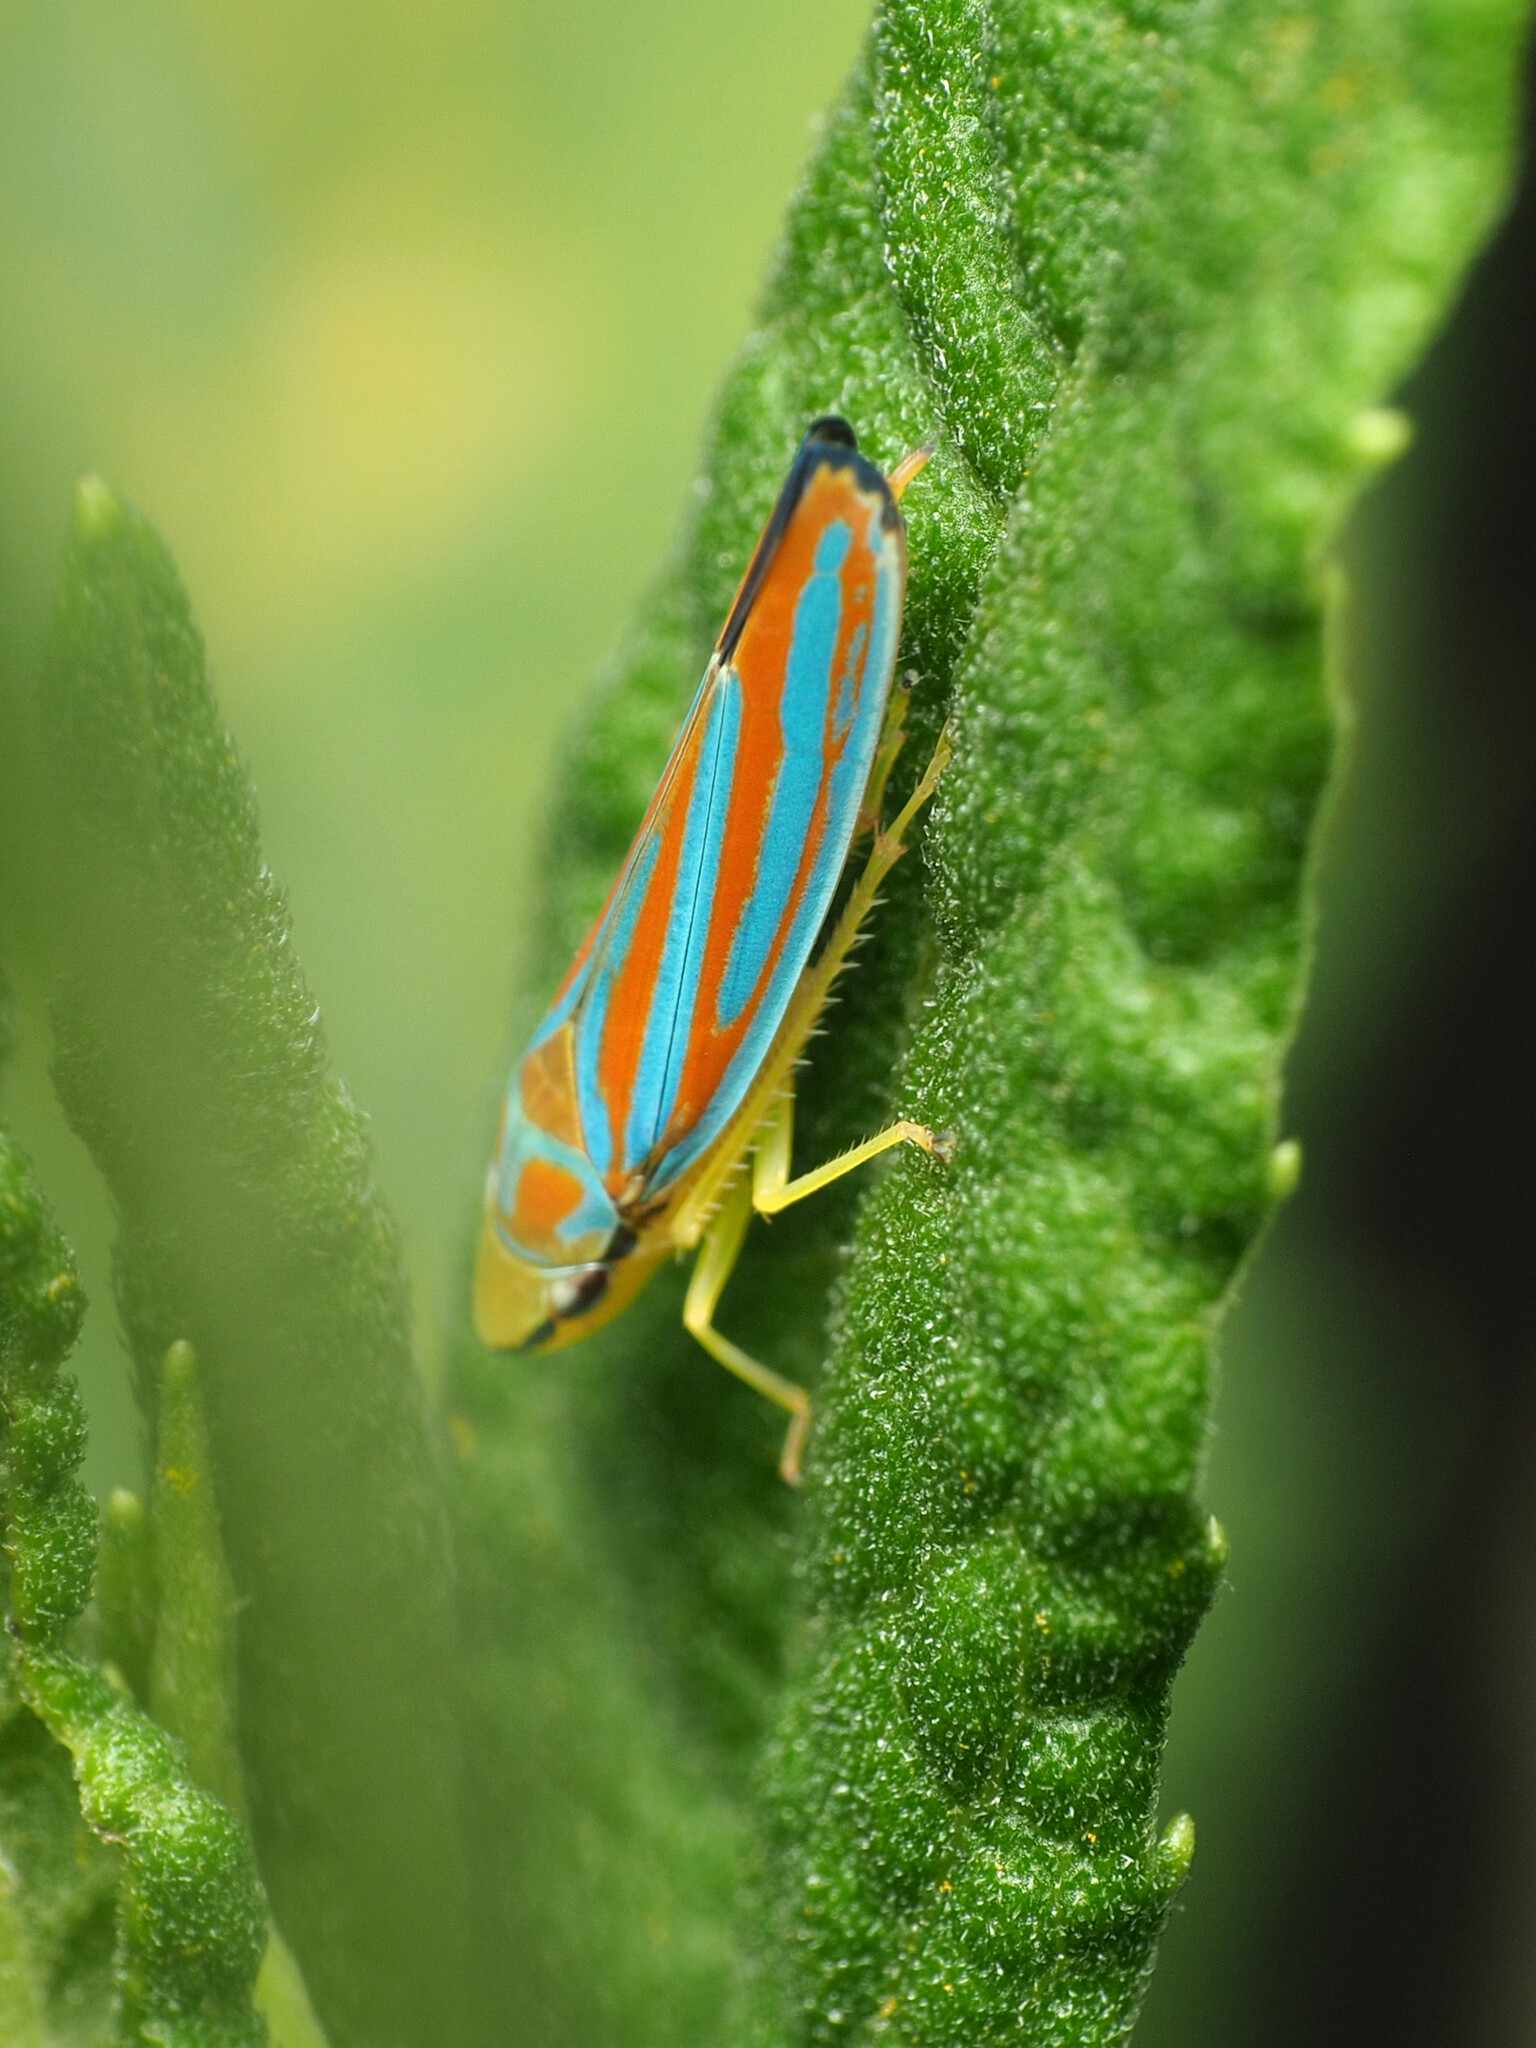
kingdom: Animalia
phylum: Arthropoda
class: Insecta
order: Hemiptera
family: Cicadellidae
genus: Graphocephala
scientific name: Graphocephala coccinea
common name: Candy-striped leafhopper
